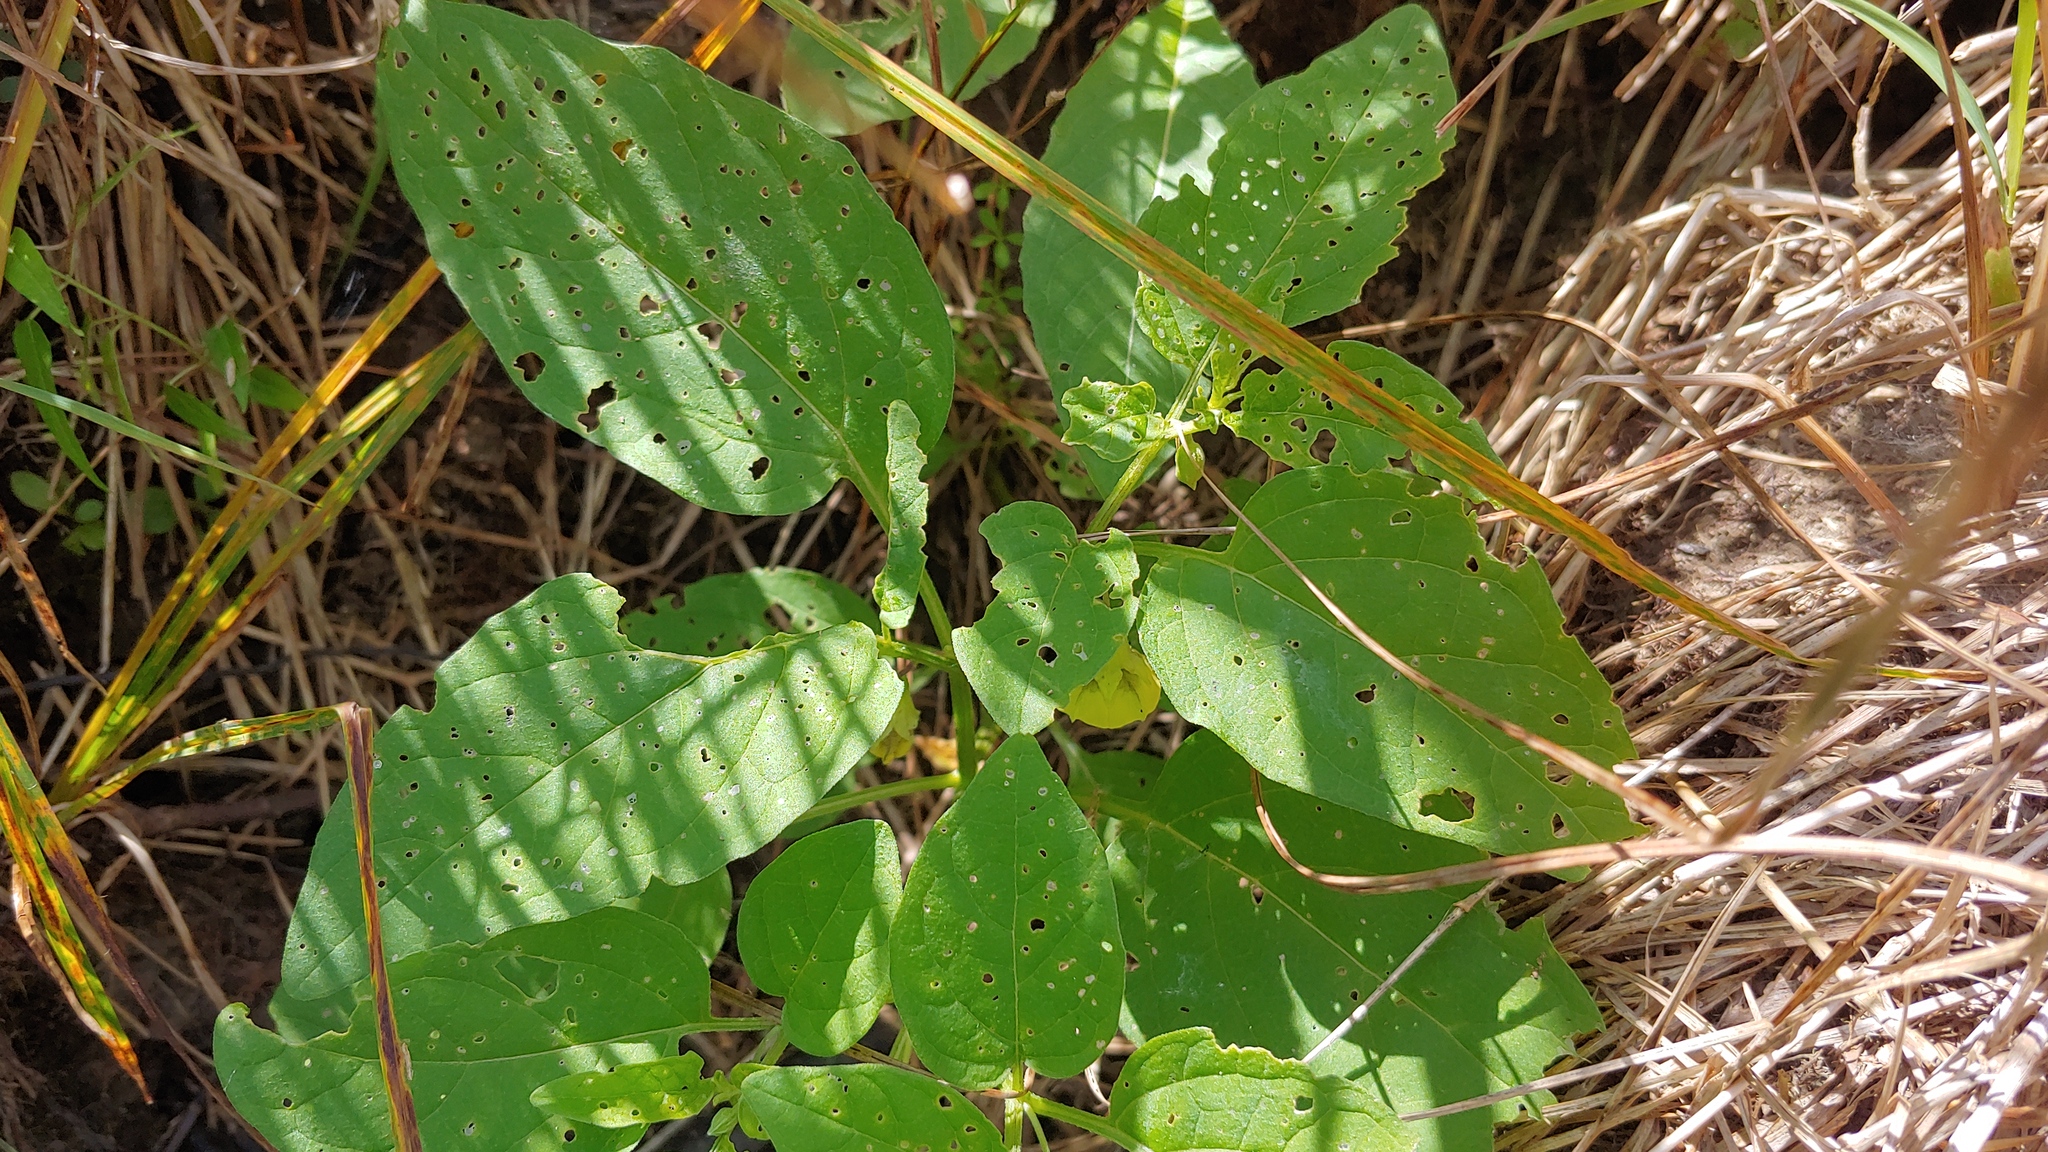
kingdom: Plantae
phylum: Tracheophyta
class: Magnoliopsida
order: Solanales
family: Solanaceae
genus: Physalis
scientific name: Physalis longifolia
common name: Common ground-cherry
